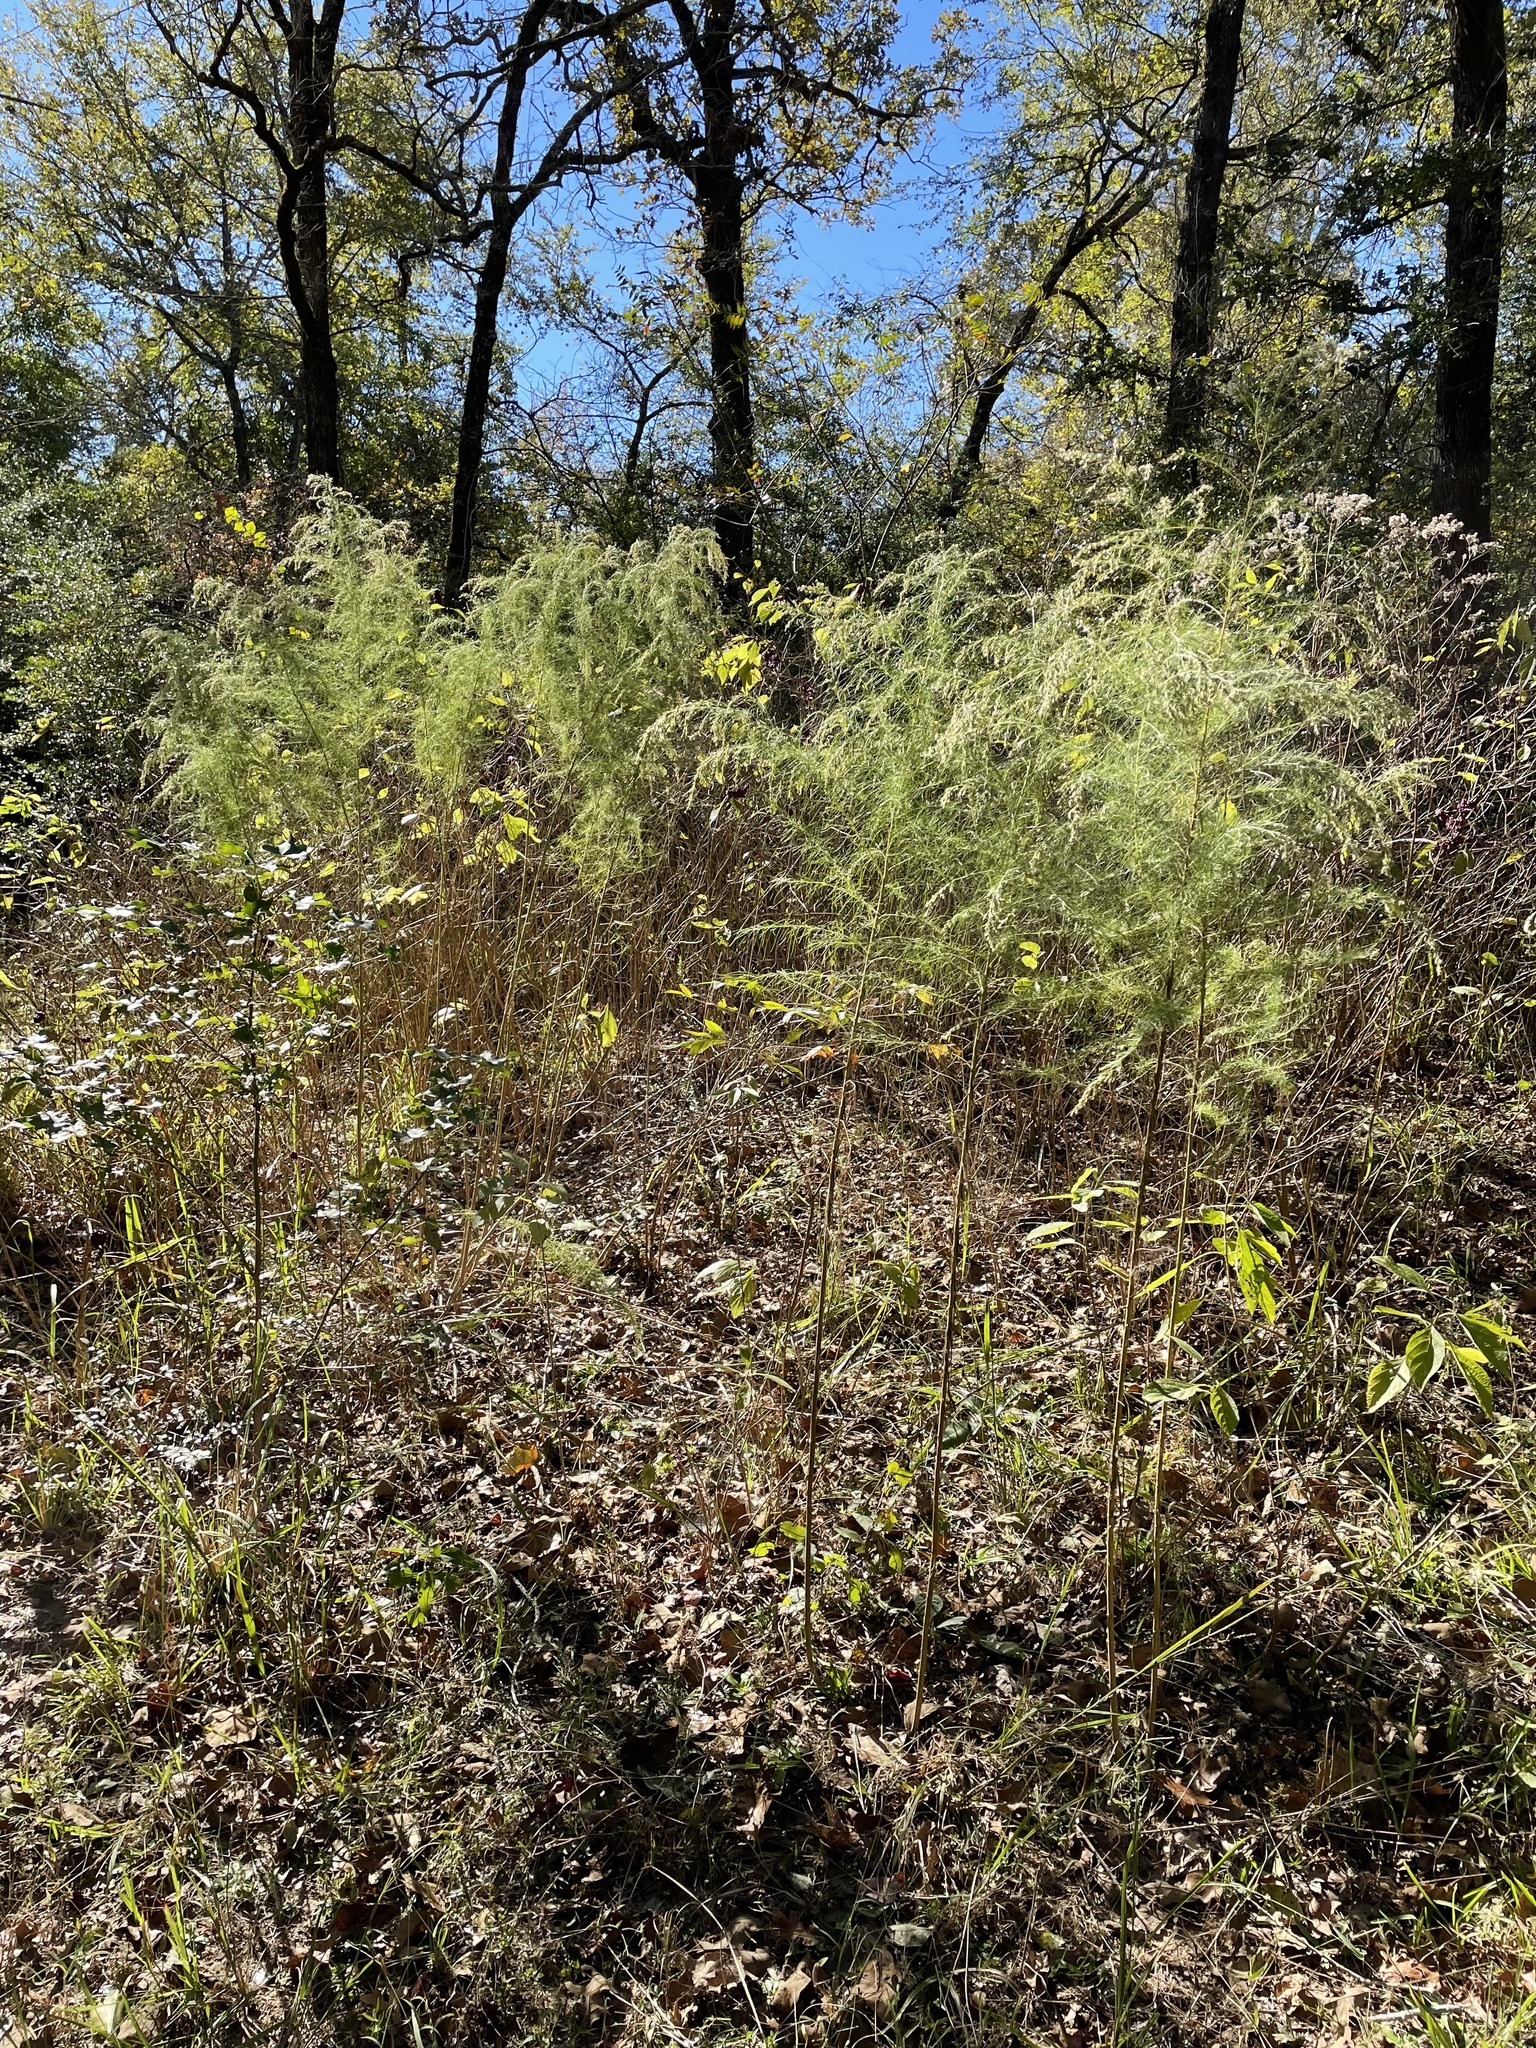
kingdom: Plantae
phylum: Tracheophyta
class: Magnoliopsida
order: Asterales
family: Asteraceae
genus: Eupatorium
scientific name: Eupatorium capillifolium
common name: Dog-fennel
